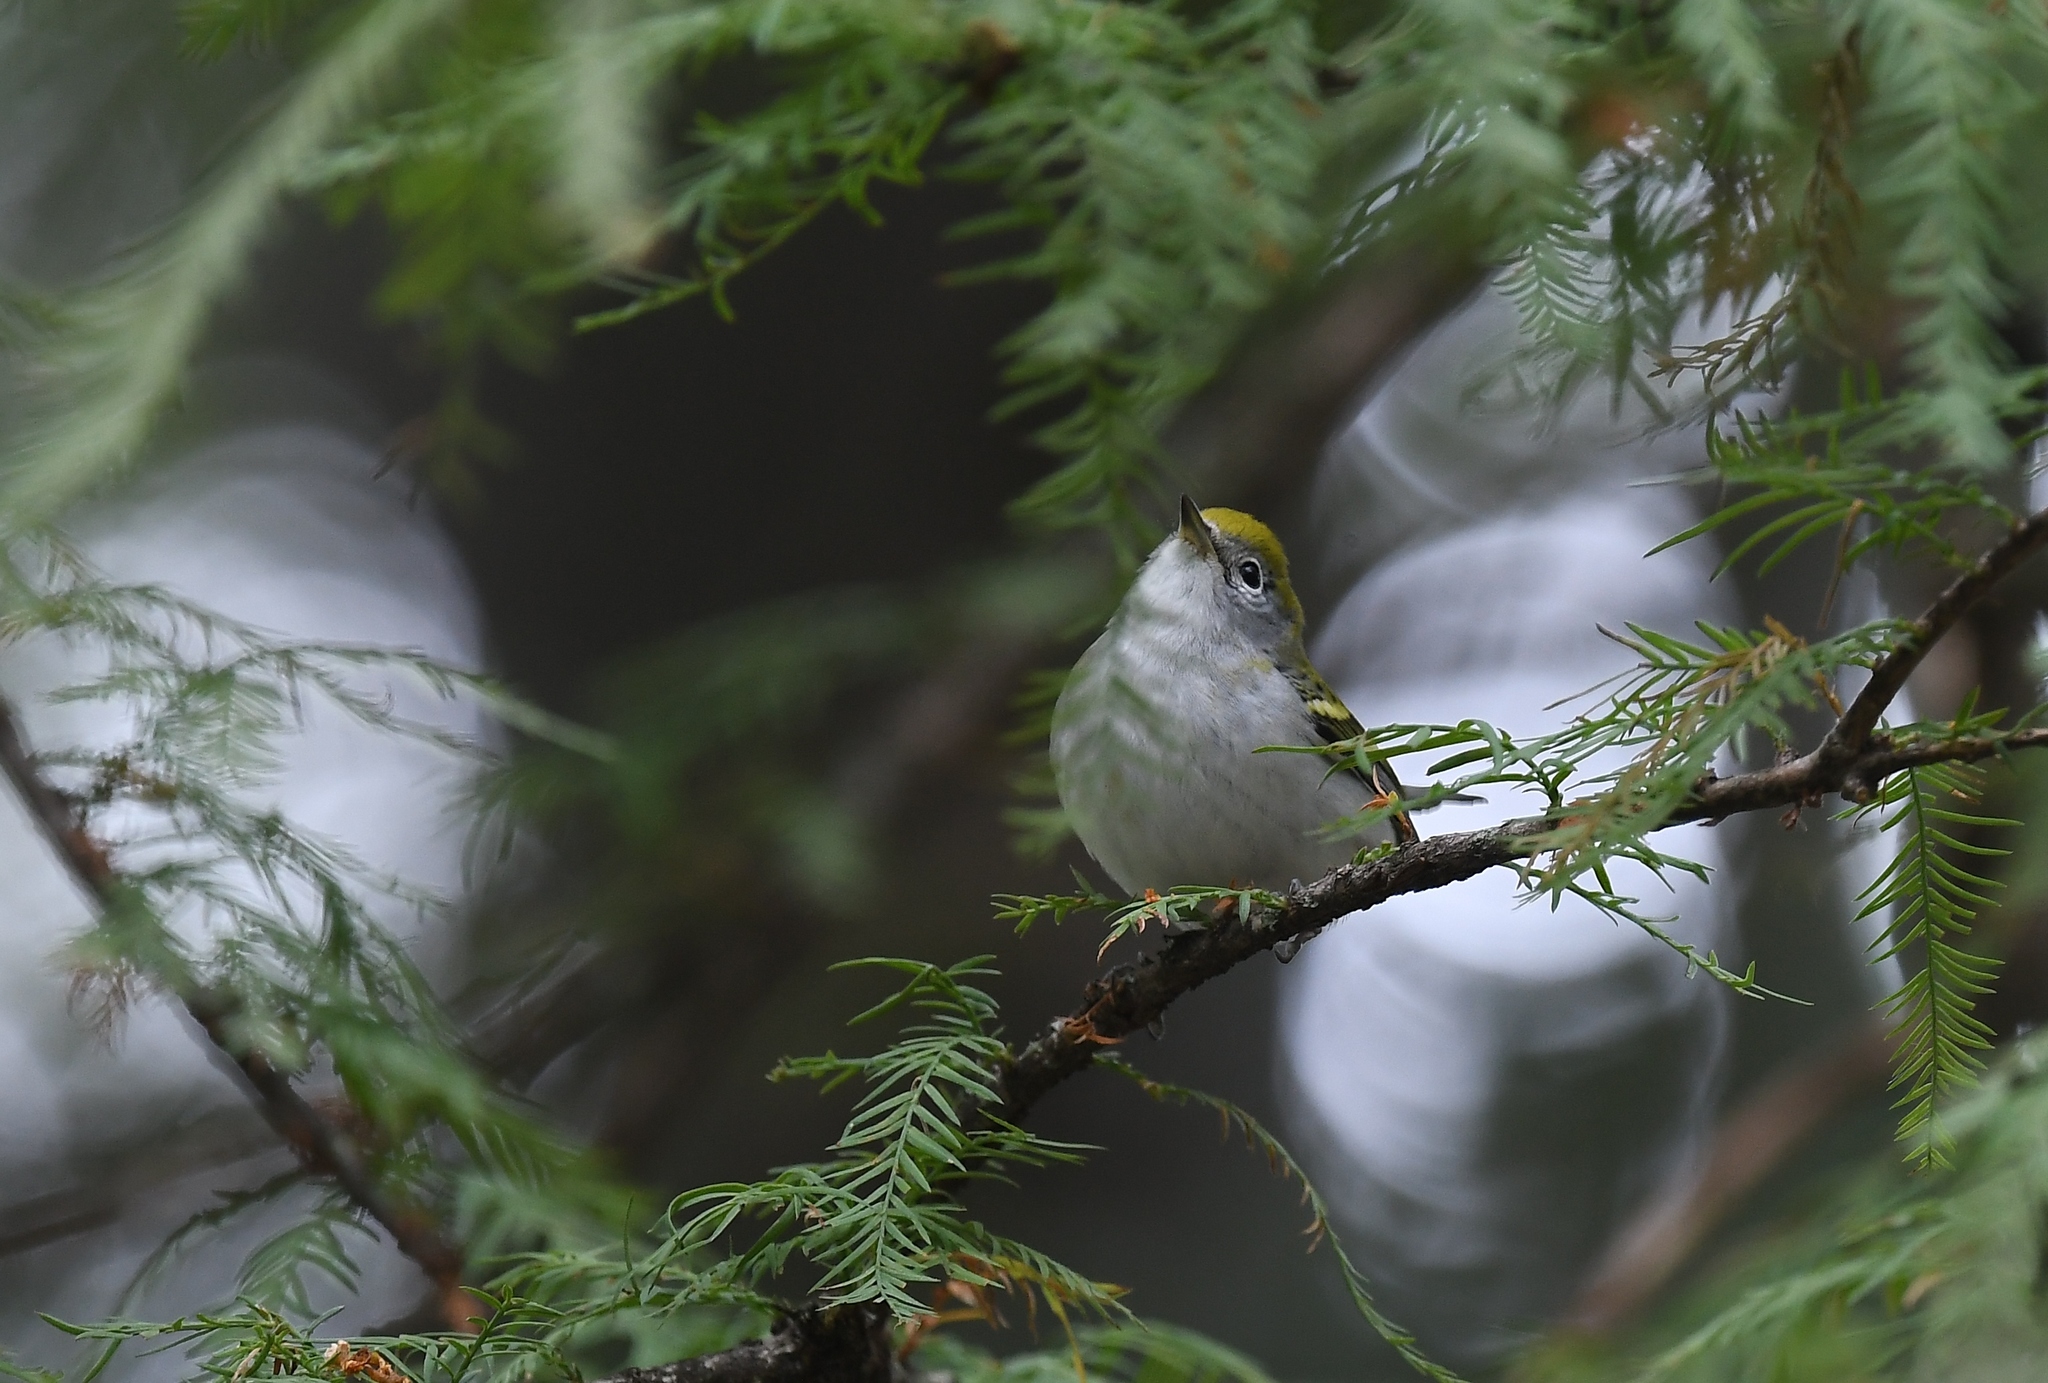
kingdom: Animalia
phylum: Chordata
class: Aves
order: Passeriformes
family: Parulidae
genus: Setophaga
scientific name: Setophaga pensylvanica
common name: Chestnut-sided warbler
